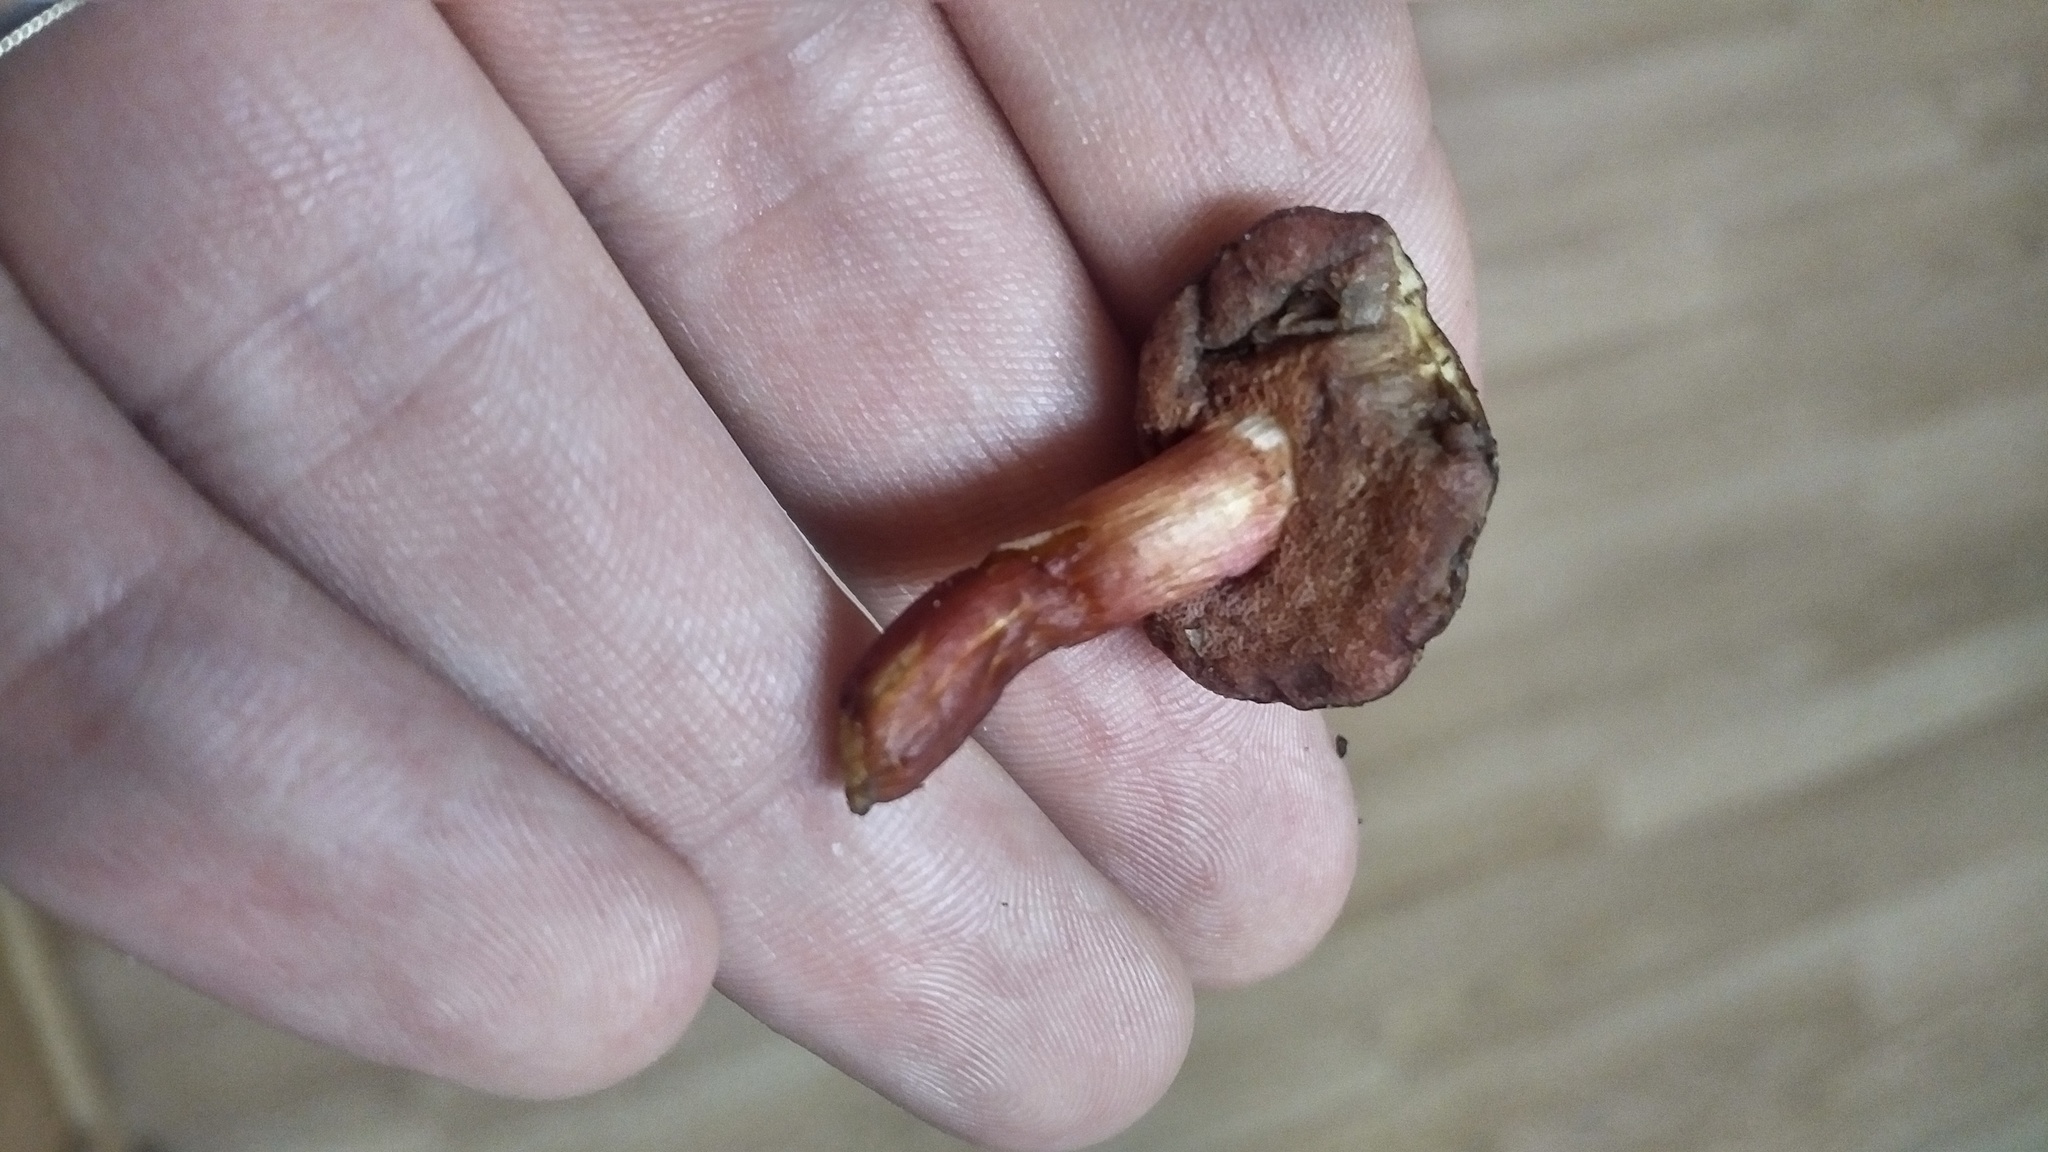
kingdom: Fungi
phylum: Basidiomycota
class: Agaricomycetes
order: Boletales
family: Boletaceae
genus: Chalciporus
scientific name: Chalciporus rubinellus
